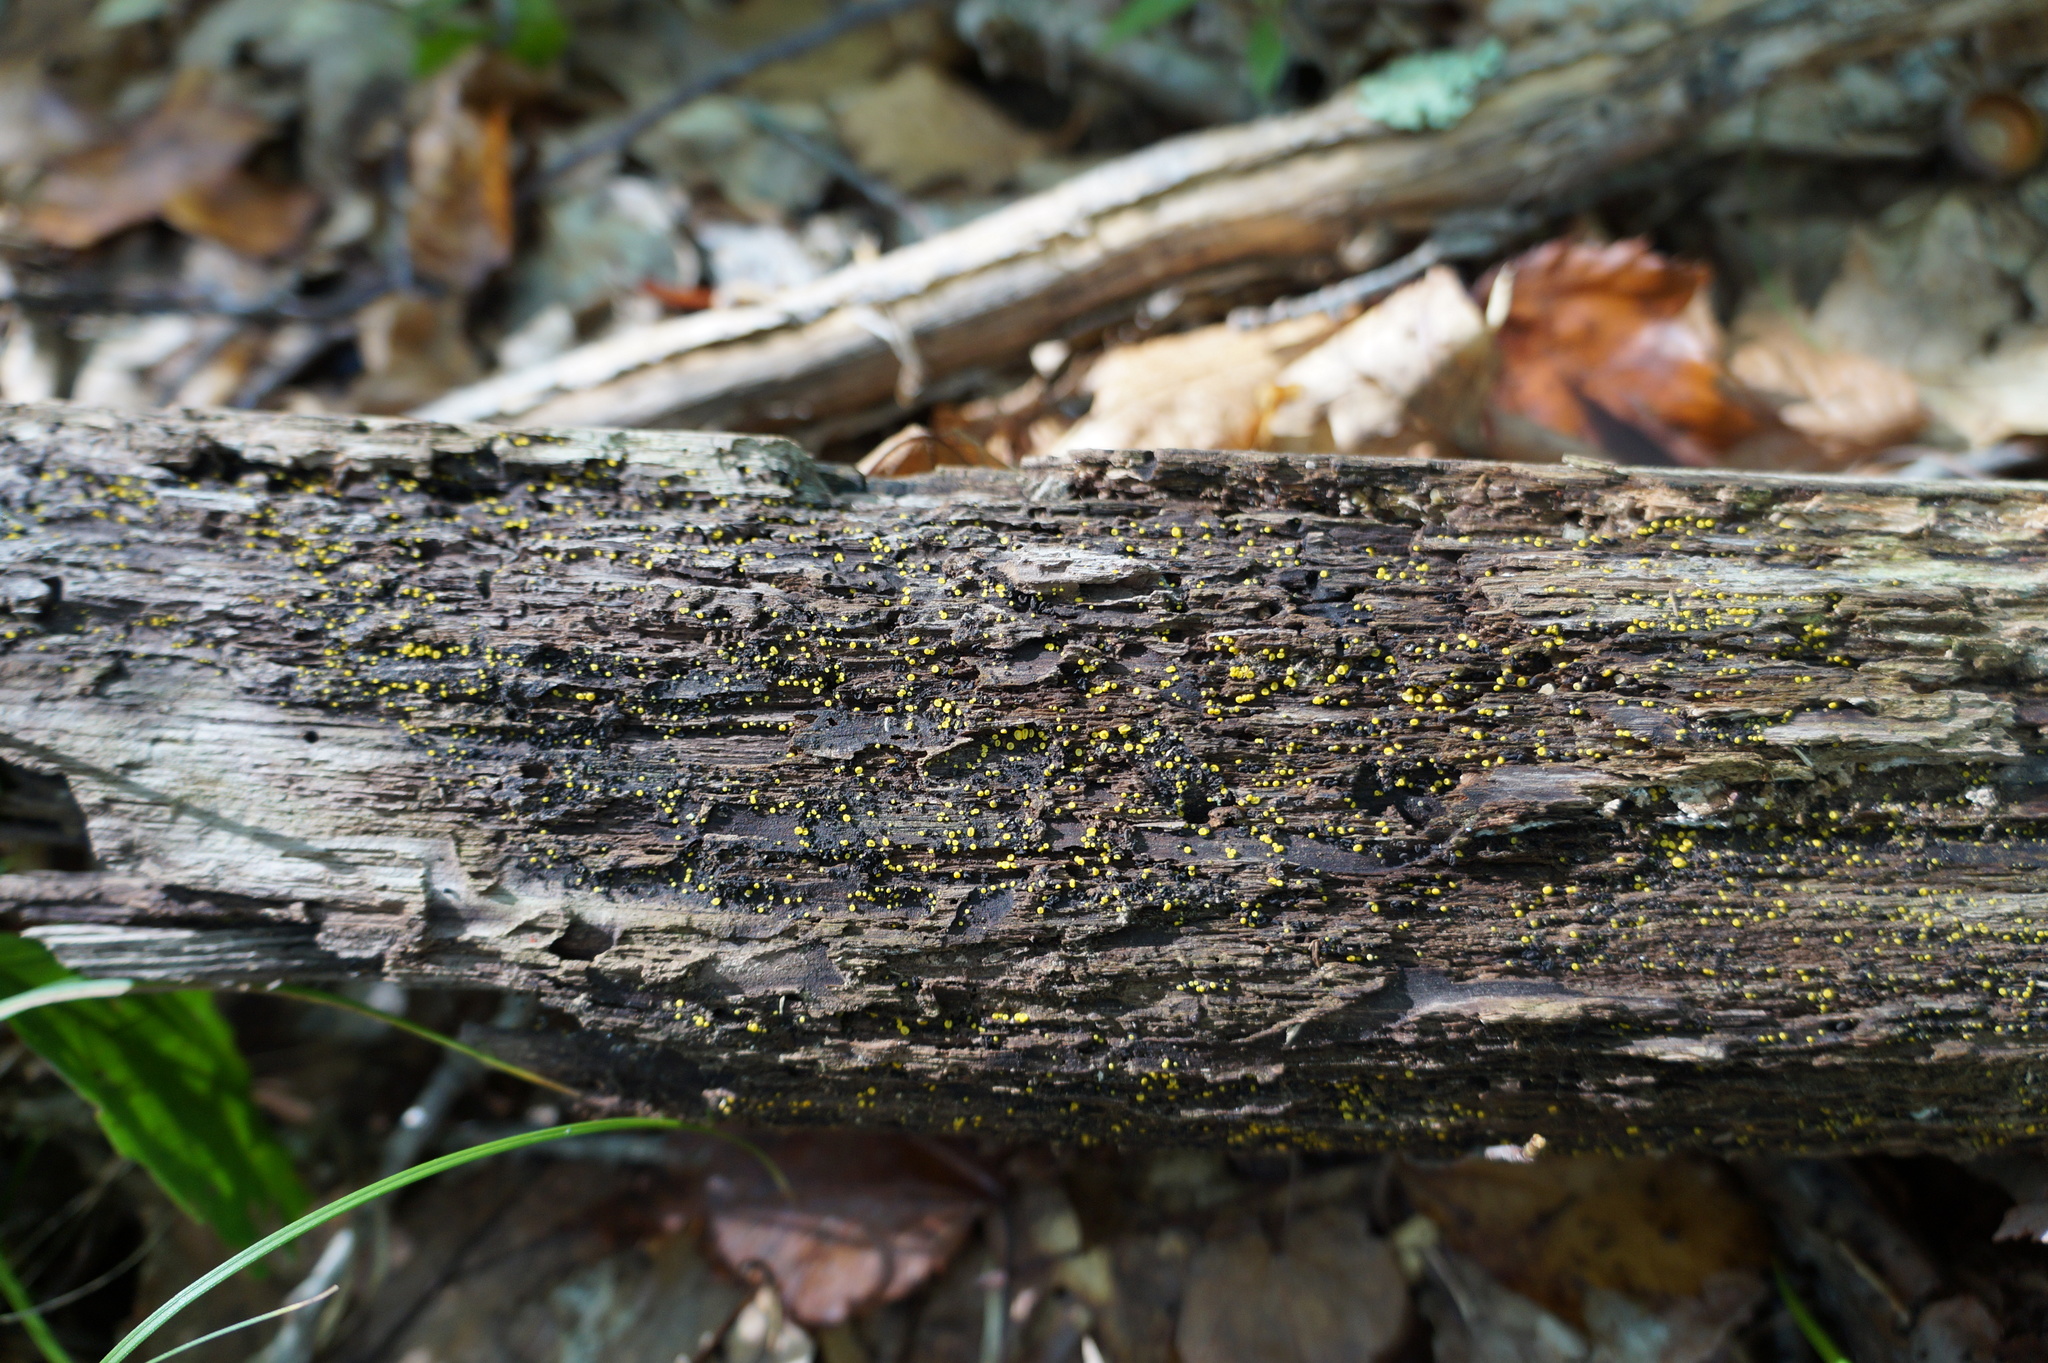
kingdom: Fungi
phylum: Ascomycota
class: Leotiomycetes
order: Helotiales
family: Chlorospleniaceae
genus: Chlorosplenium
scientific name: Chlorosplenium chlora
